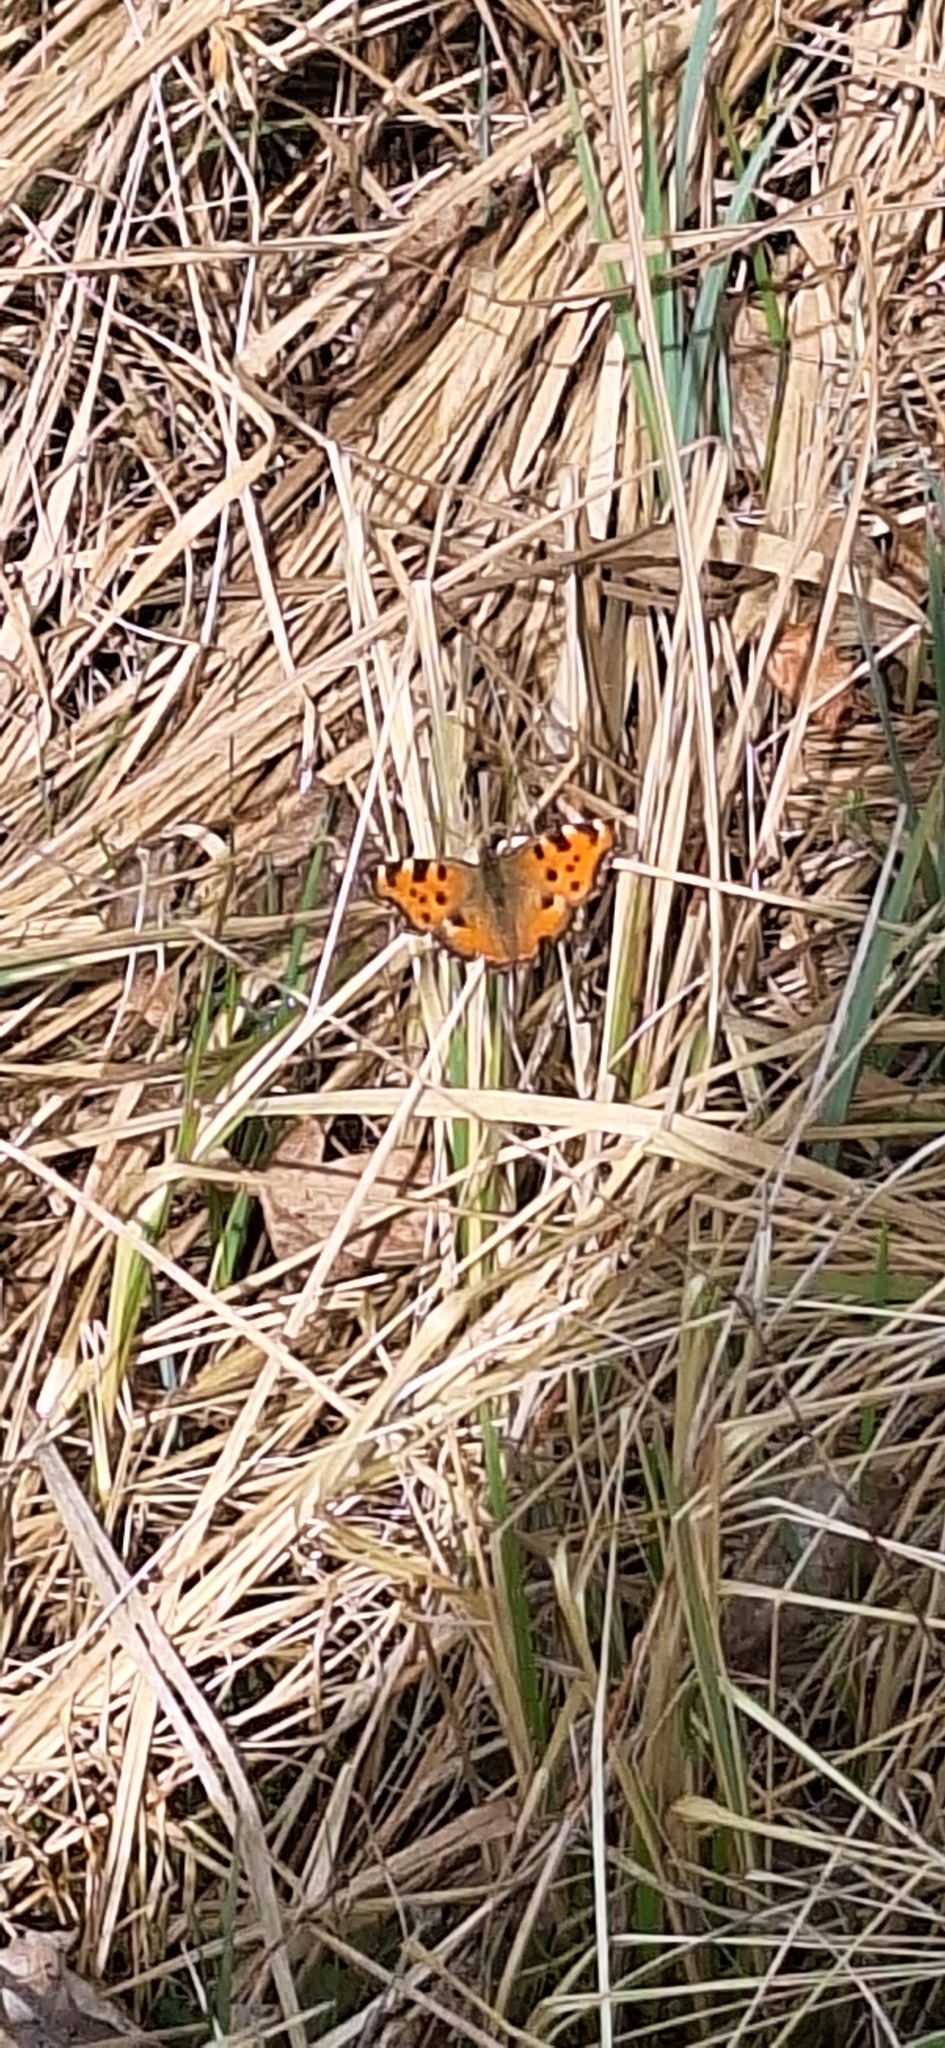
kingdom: Animalia
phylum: Arthropoda
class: Insecta
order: Lepidoptera
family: Nymphalidae
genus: Nymphalis
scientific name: Nymphalis polychloros
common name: Large tortoiseshell
